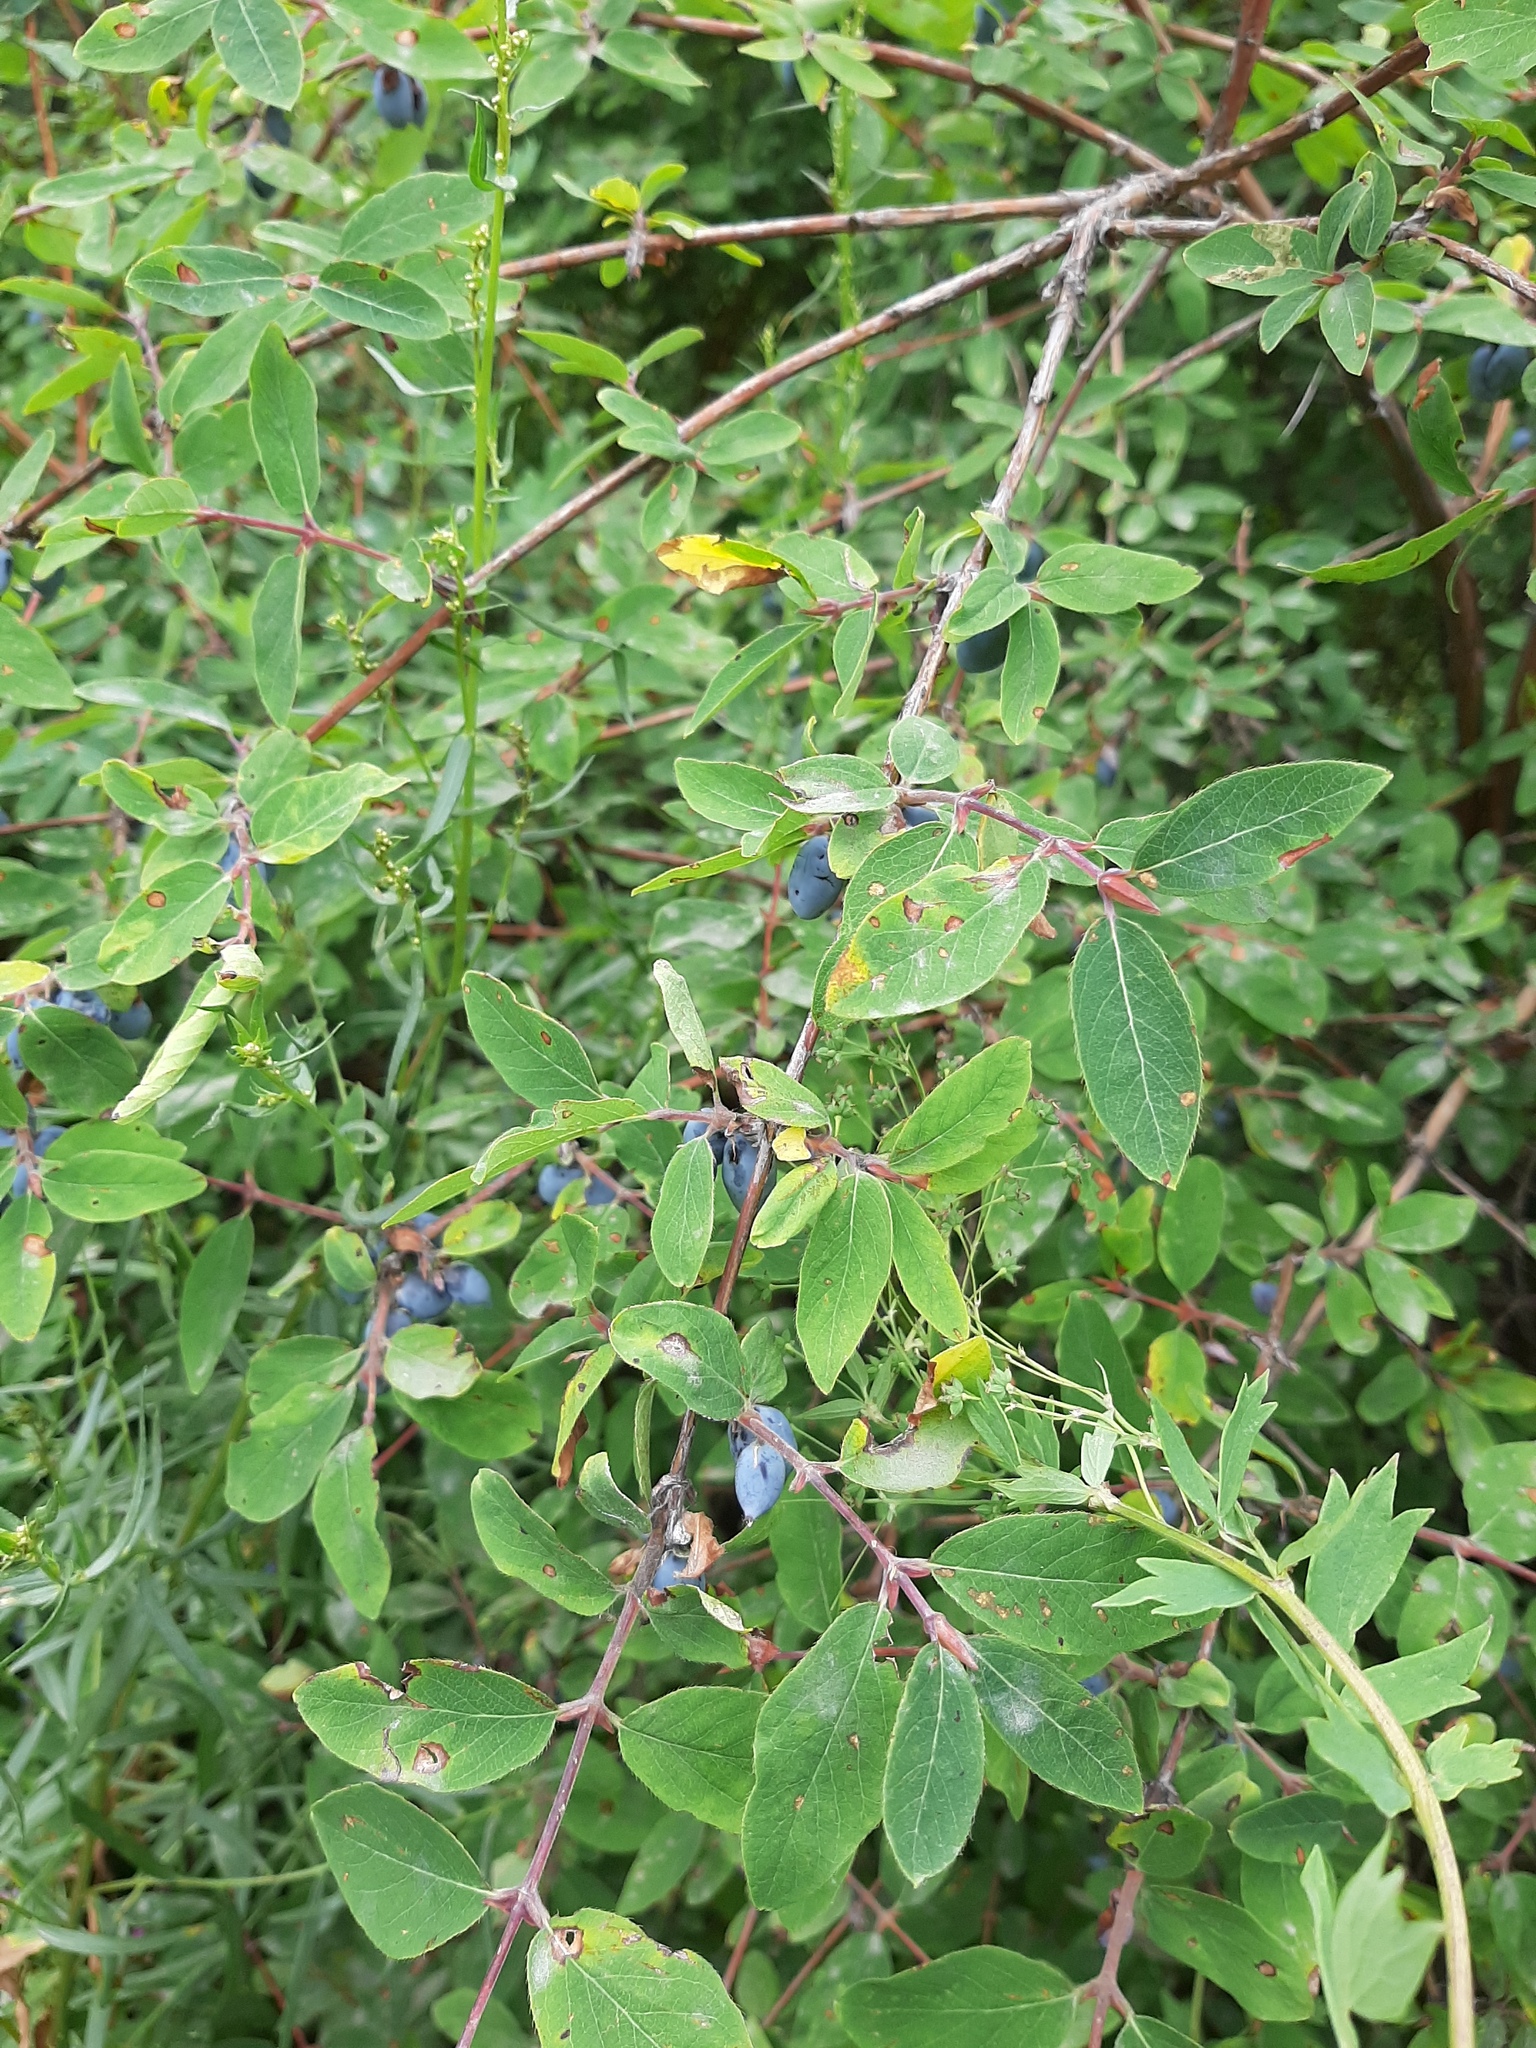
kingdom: Plantae
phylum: Tracheophyta
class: Magnoliopsida
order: Dipsacales
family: Caprifoliaceae
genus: Lonicera
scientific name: Lonicera stenantha
